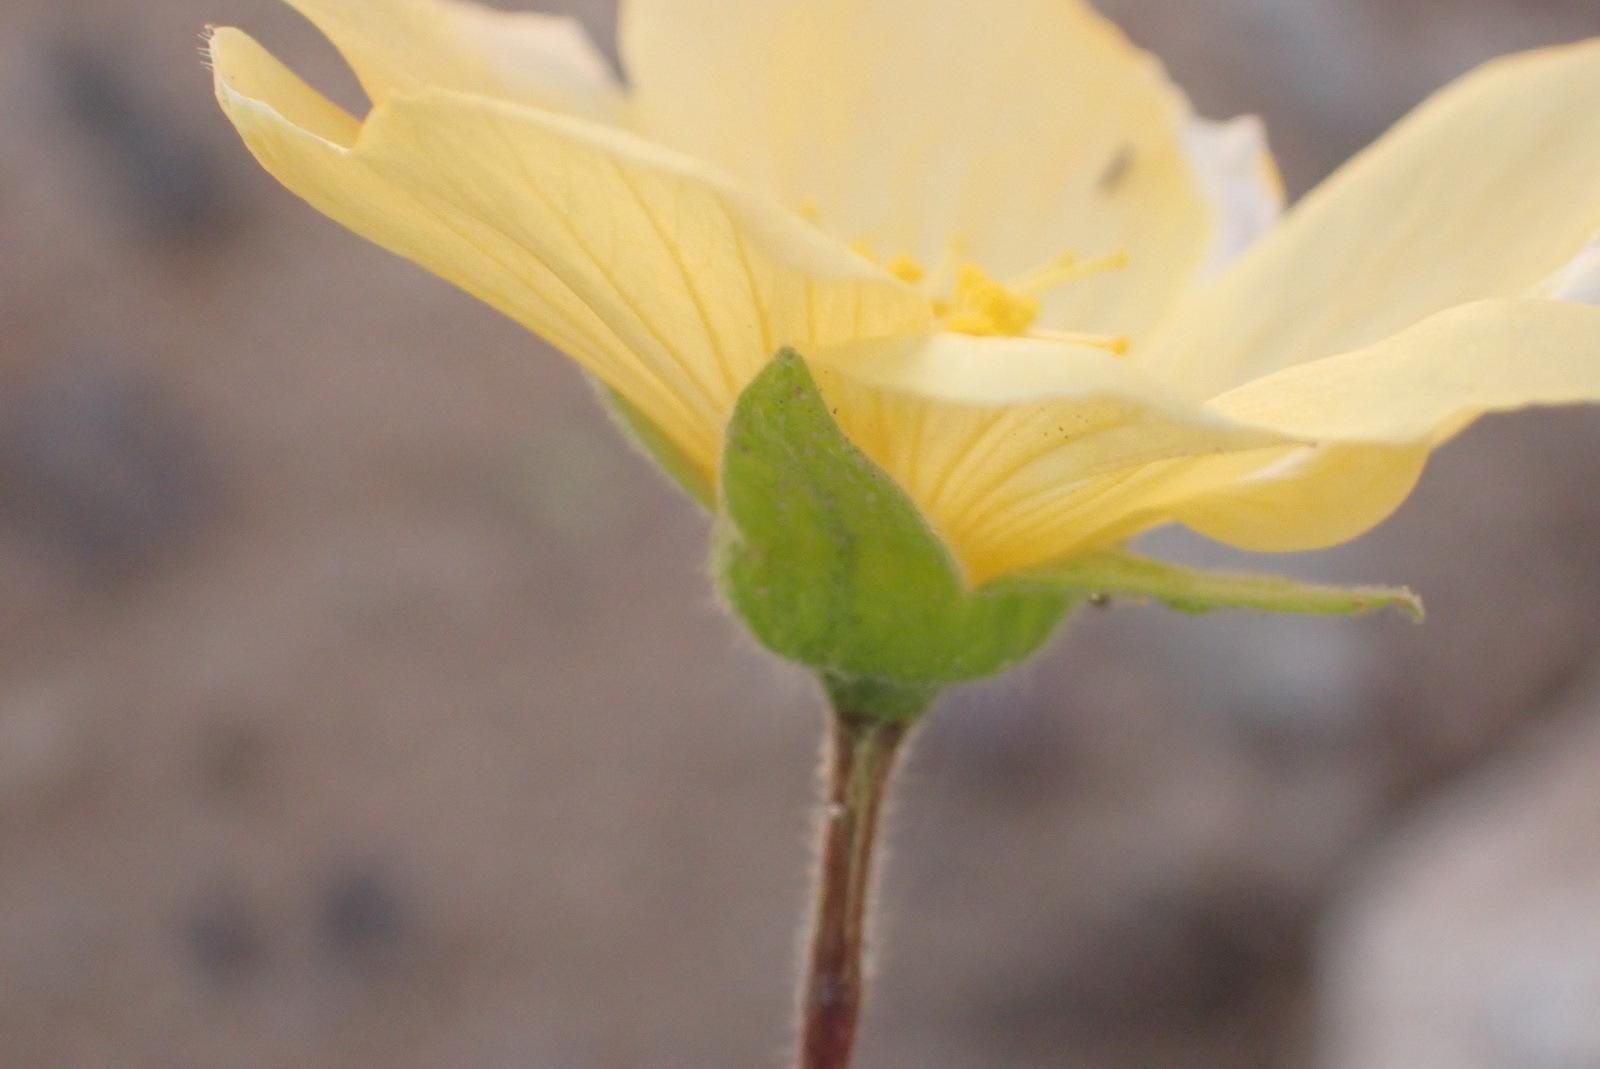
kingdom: Plantae
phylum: Tracheophyta
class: Magnoliopsida
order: Malvales
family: Malvaceae
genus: Abutilon
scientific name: Abutilon sonneratianum
